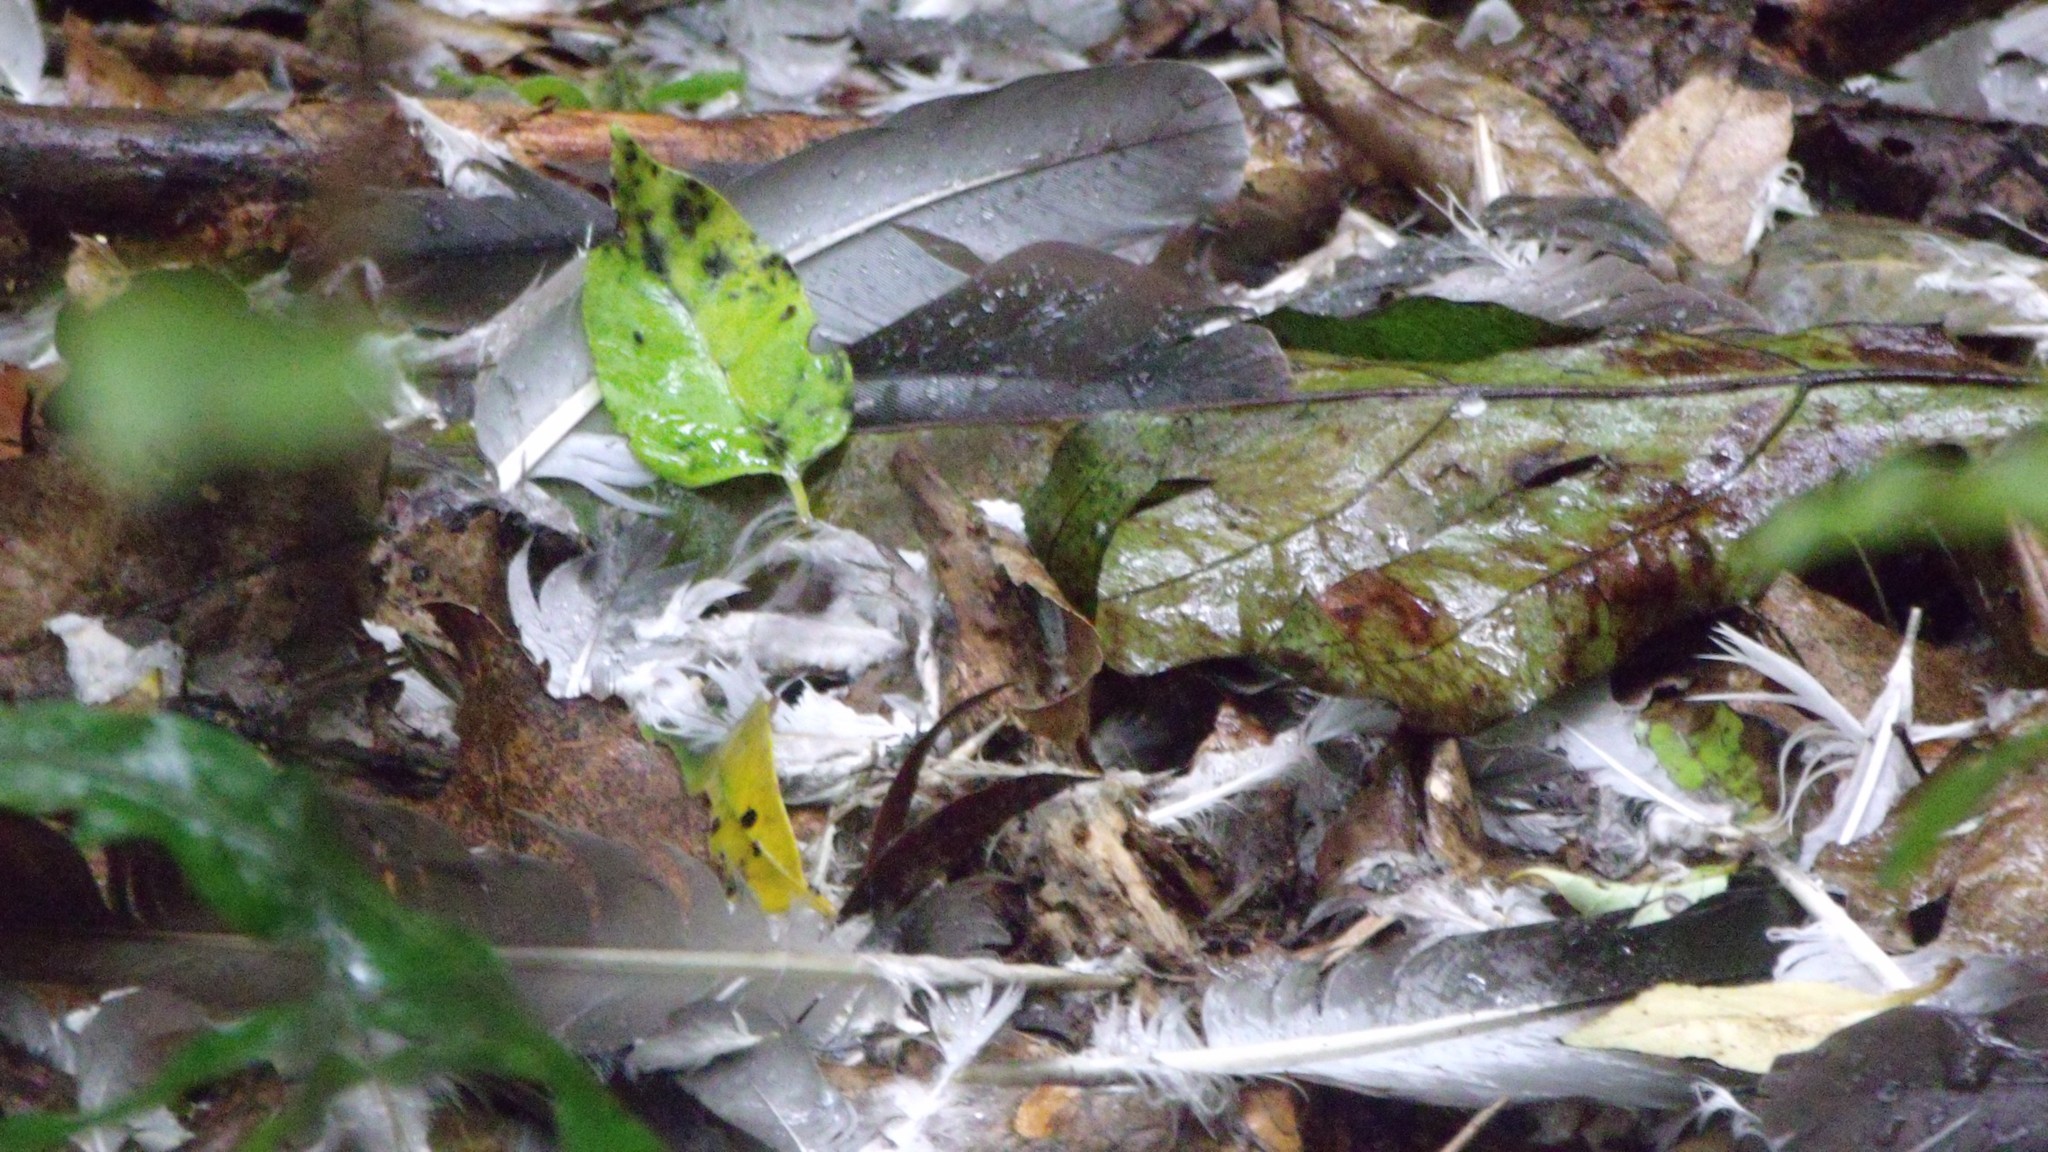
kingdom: Animalia
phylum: Chordata
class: Aves
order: Columbiformes
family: Columbidae
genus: Hemiphaga
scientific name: Hemiphaga novaeseelandiae
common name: New zealand pigeon
